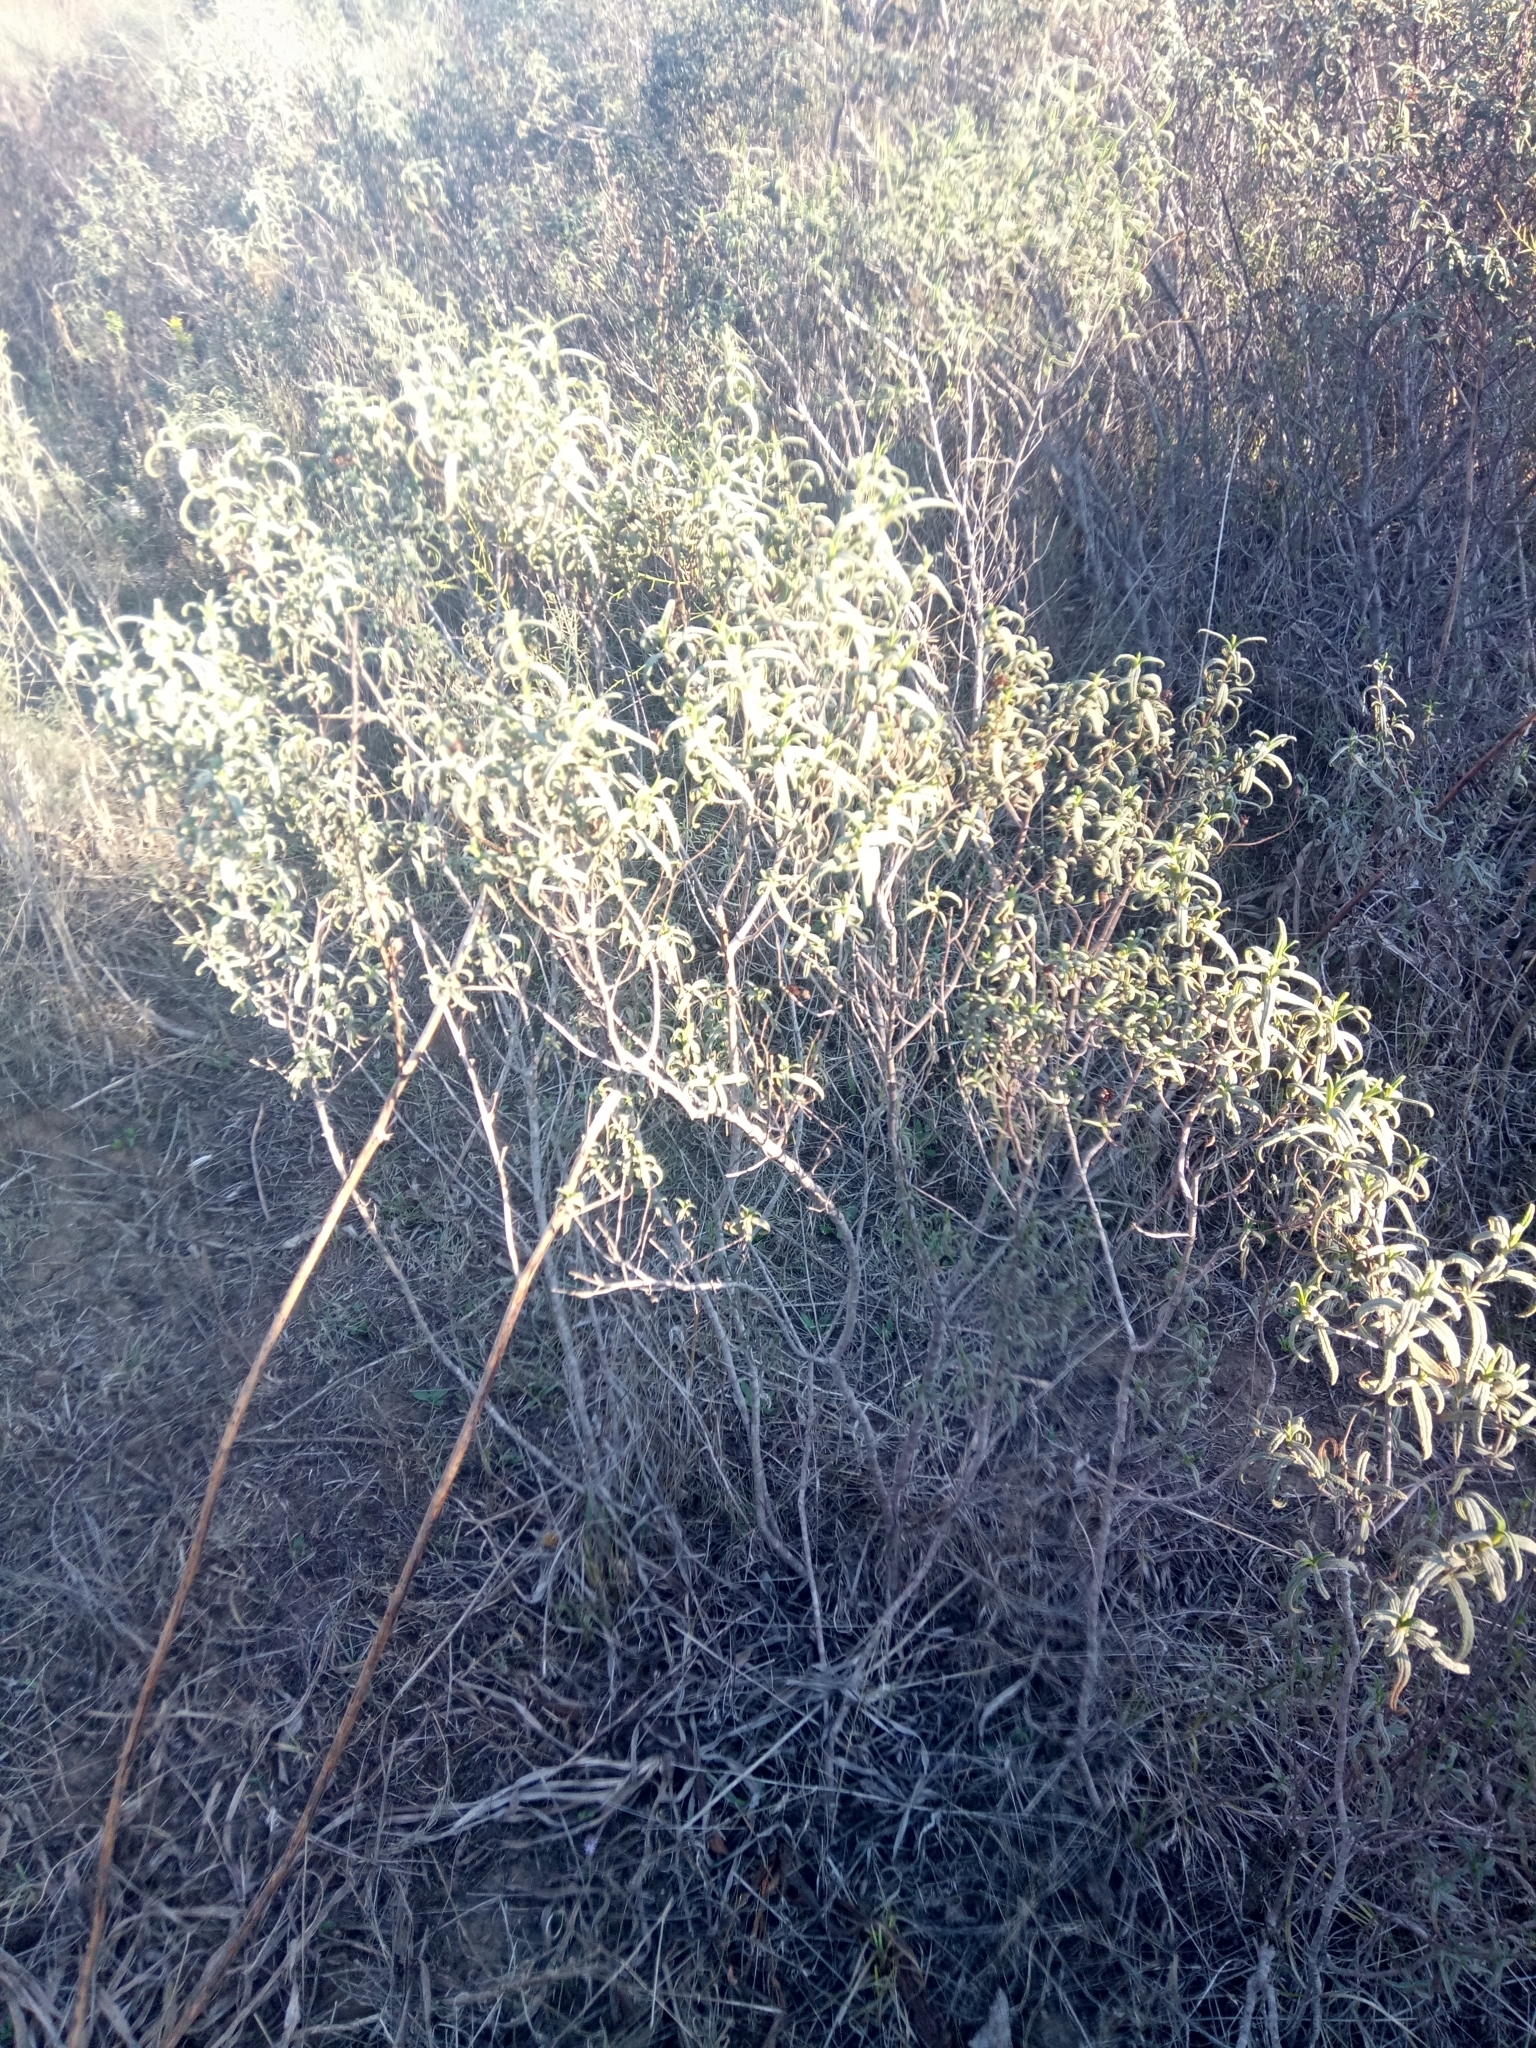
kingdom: Plantae
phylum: Tracheophyta
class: Magnoliopsida
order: Malvales
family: Cistaceae
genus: Cistus
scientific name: Cistus monspeliensis
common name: Montpelier cistus
